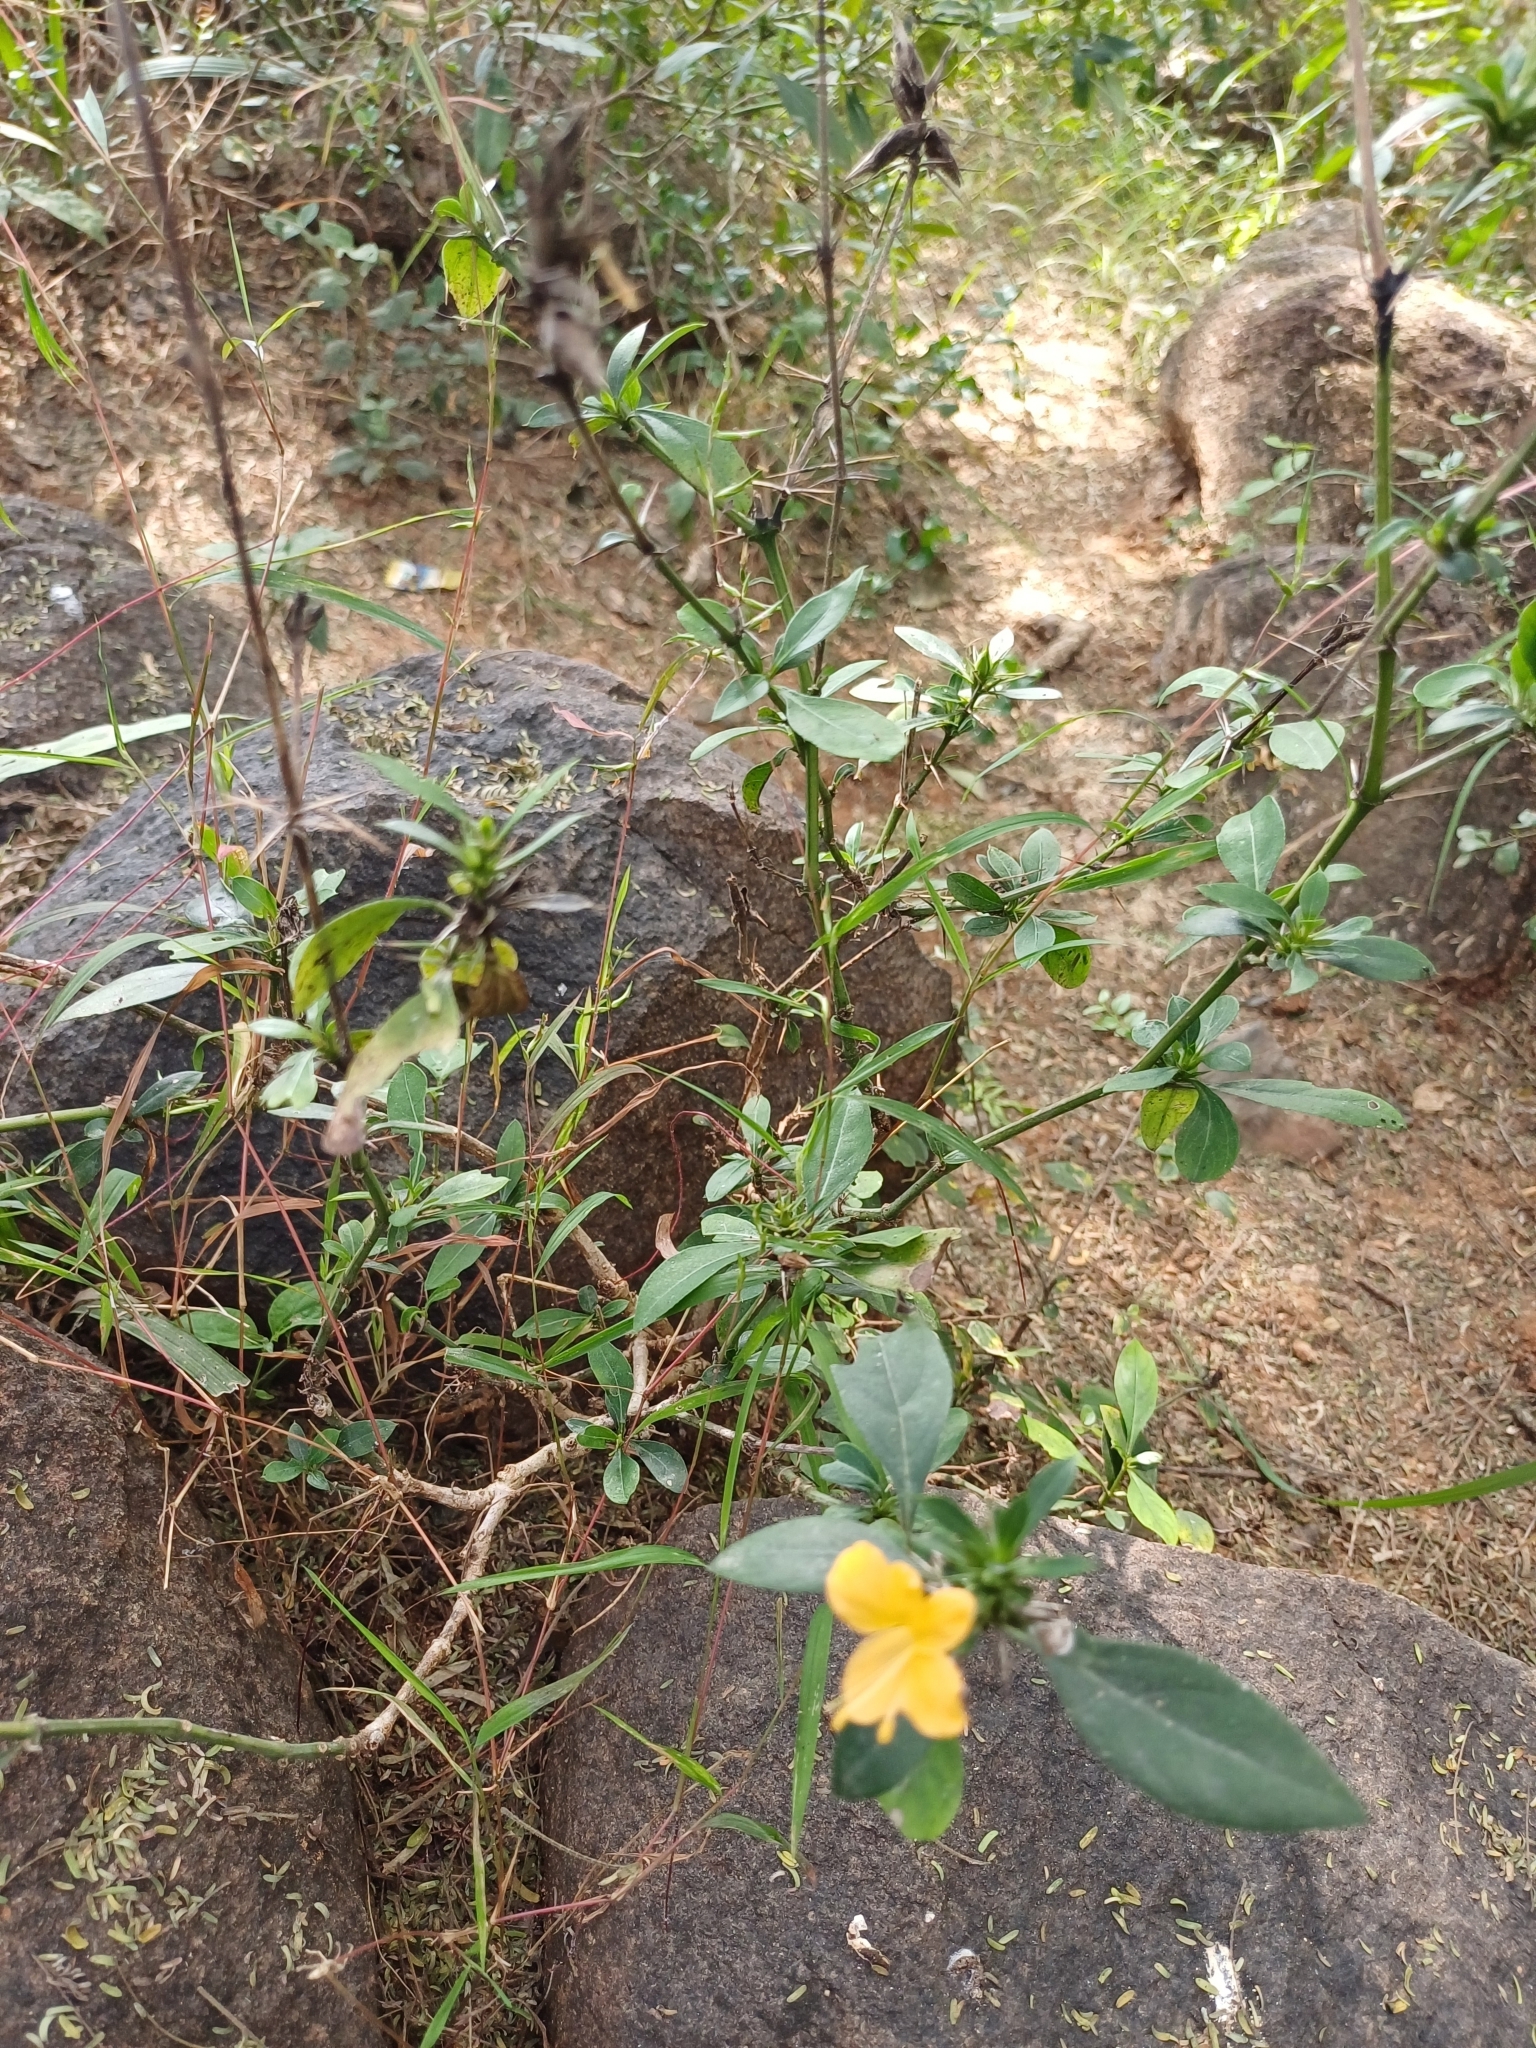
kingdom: Plantae
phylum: Tracheophyta
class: Magnoliopsida
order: Lamiales
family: Acanthaceae
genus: Barleria
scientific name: Barleria prionitis
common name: Barleria
